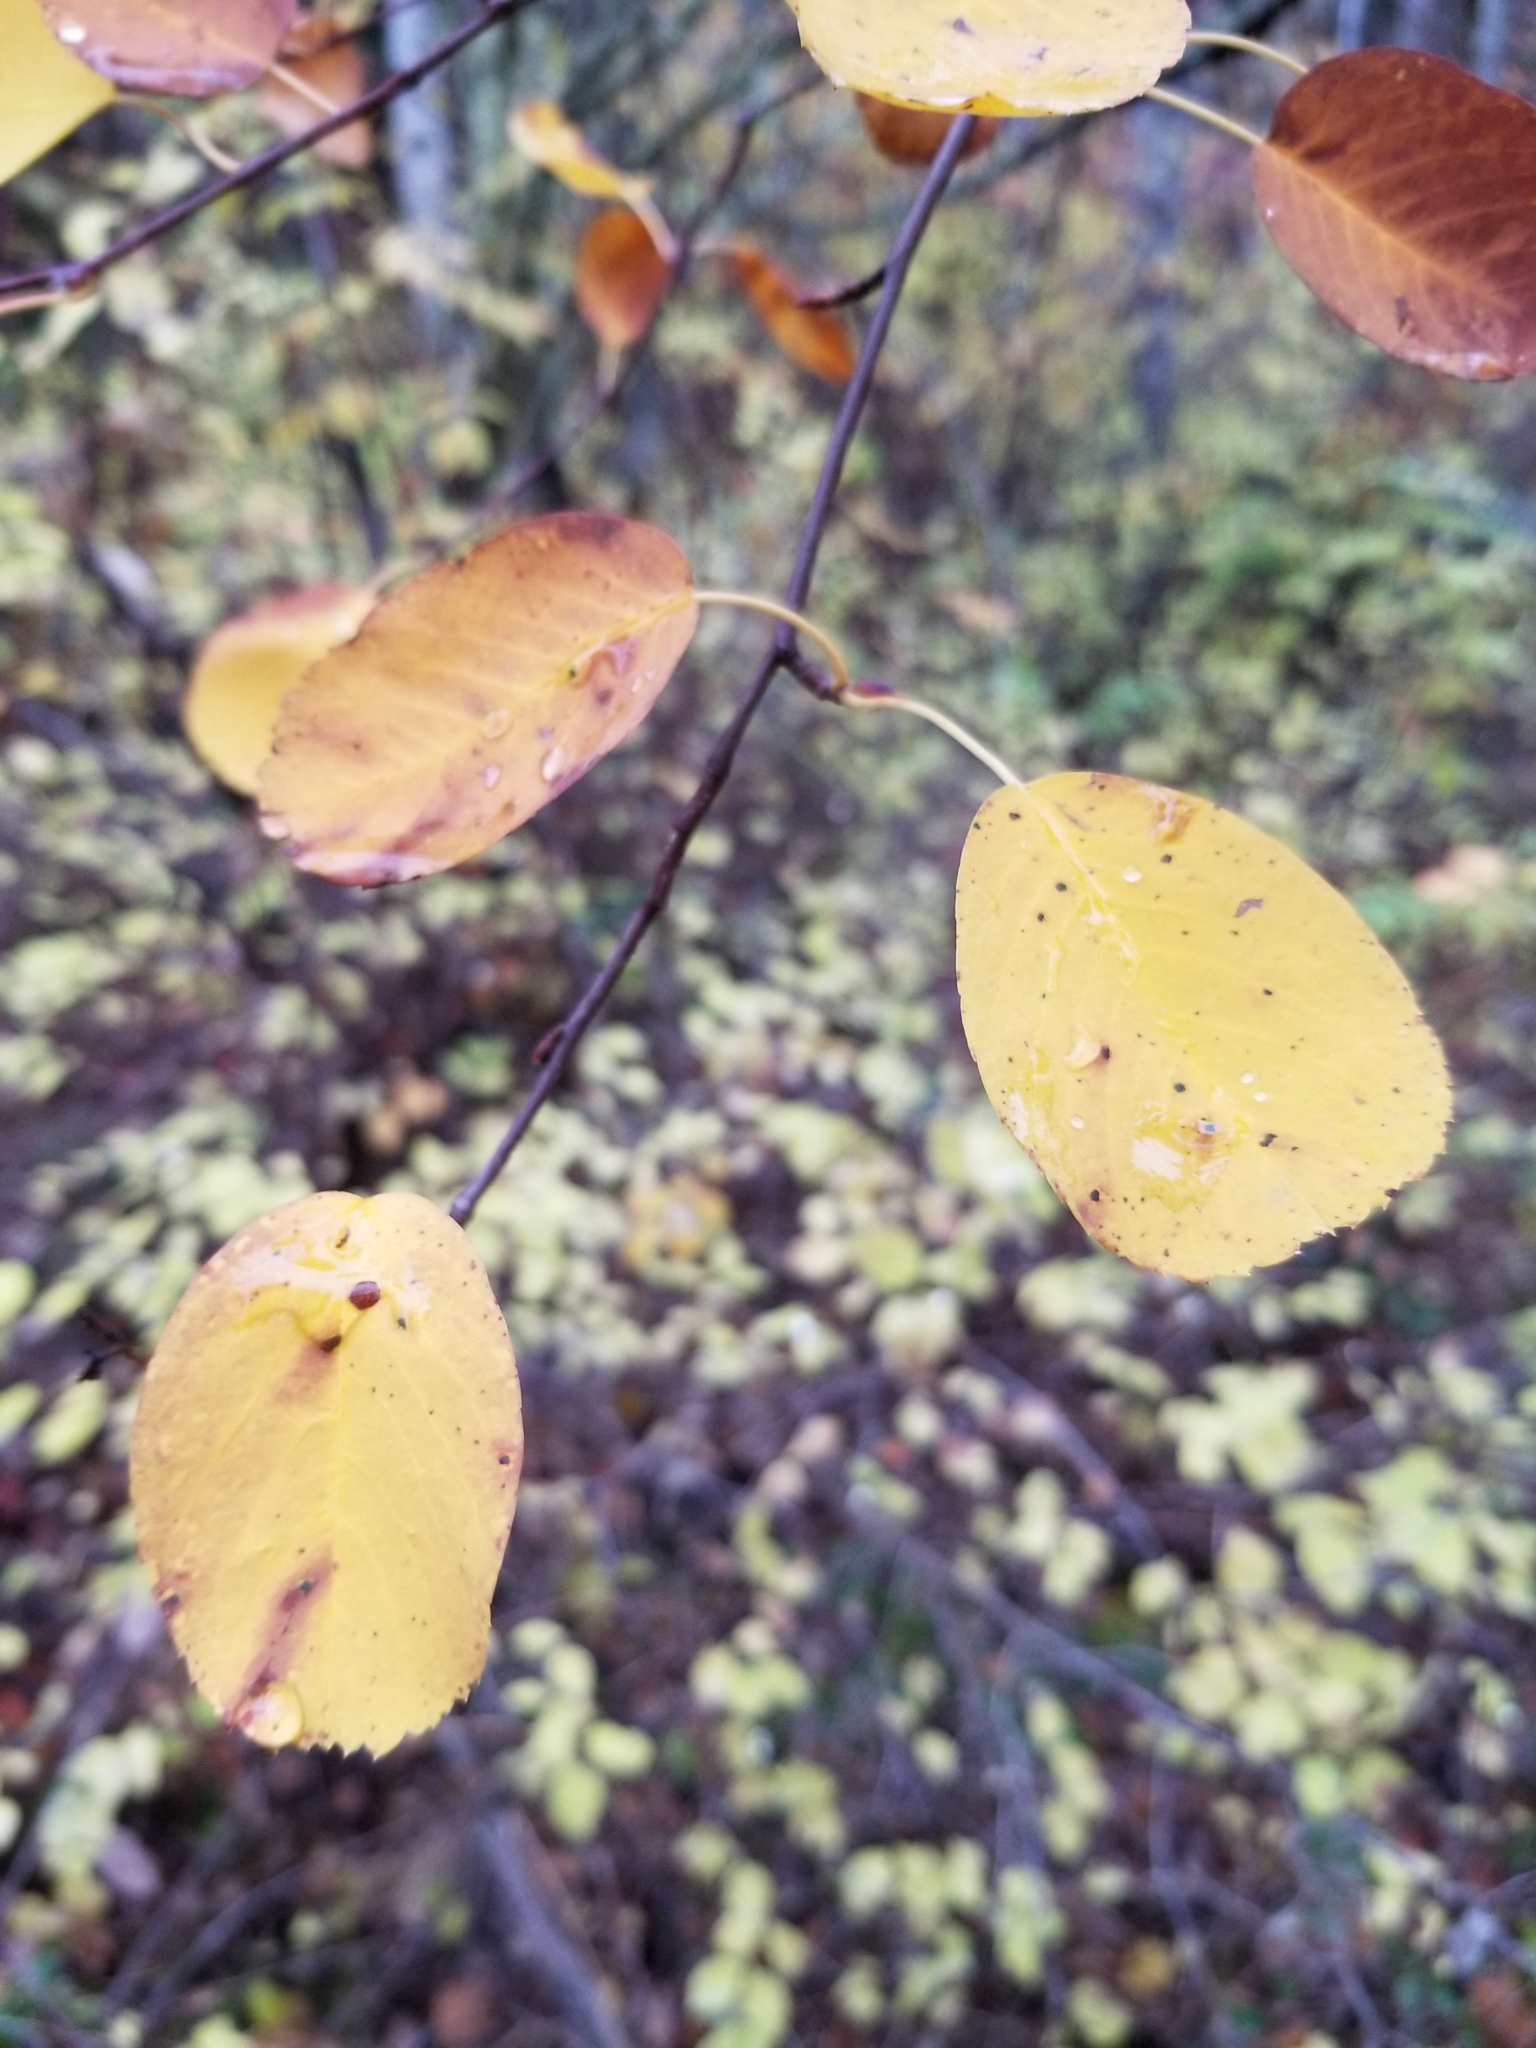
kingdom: Plantae
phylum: Tracheophyta
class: Magnoliopsida
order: Rosales
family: Rosaceae
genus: Amelanchier
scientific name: Amelanchier alnifolia
